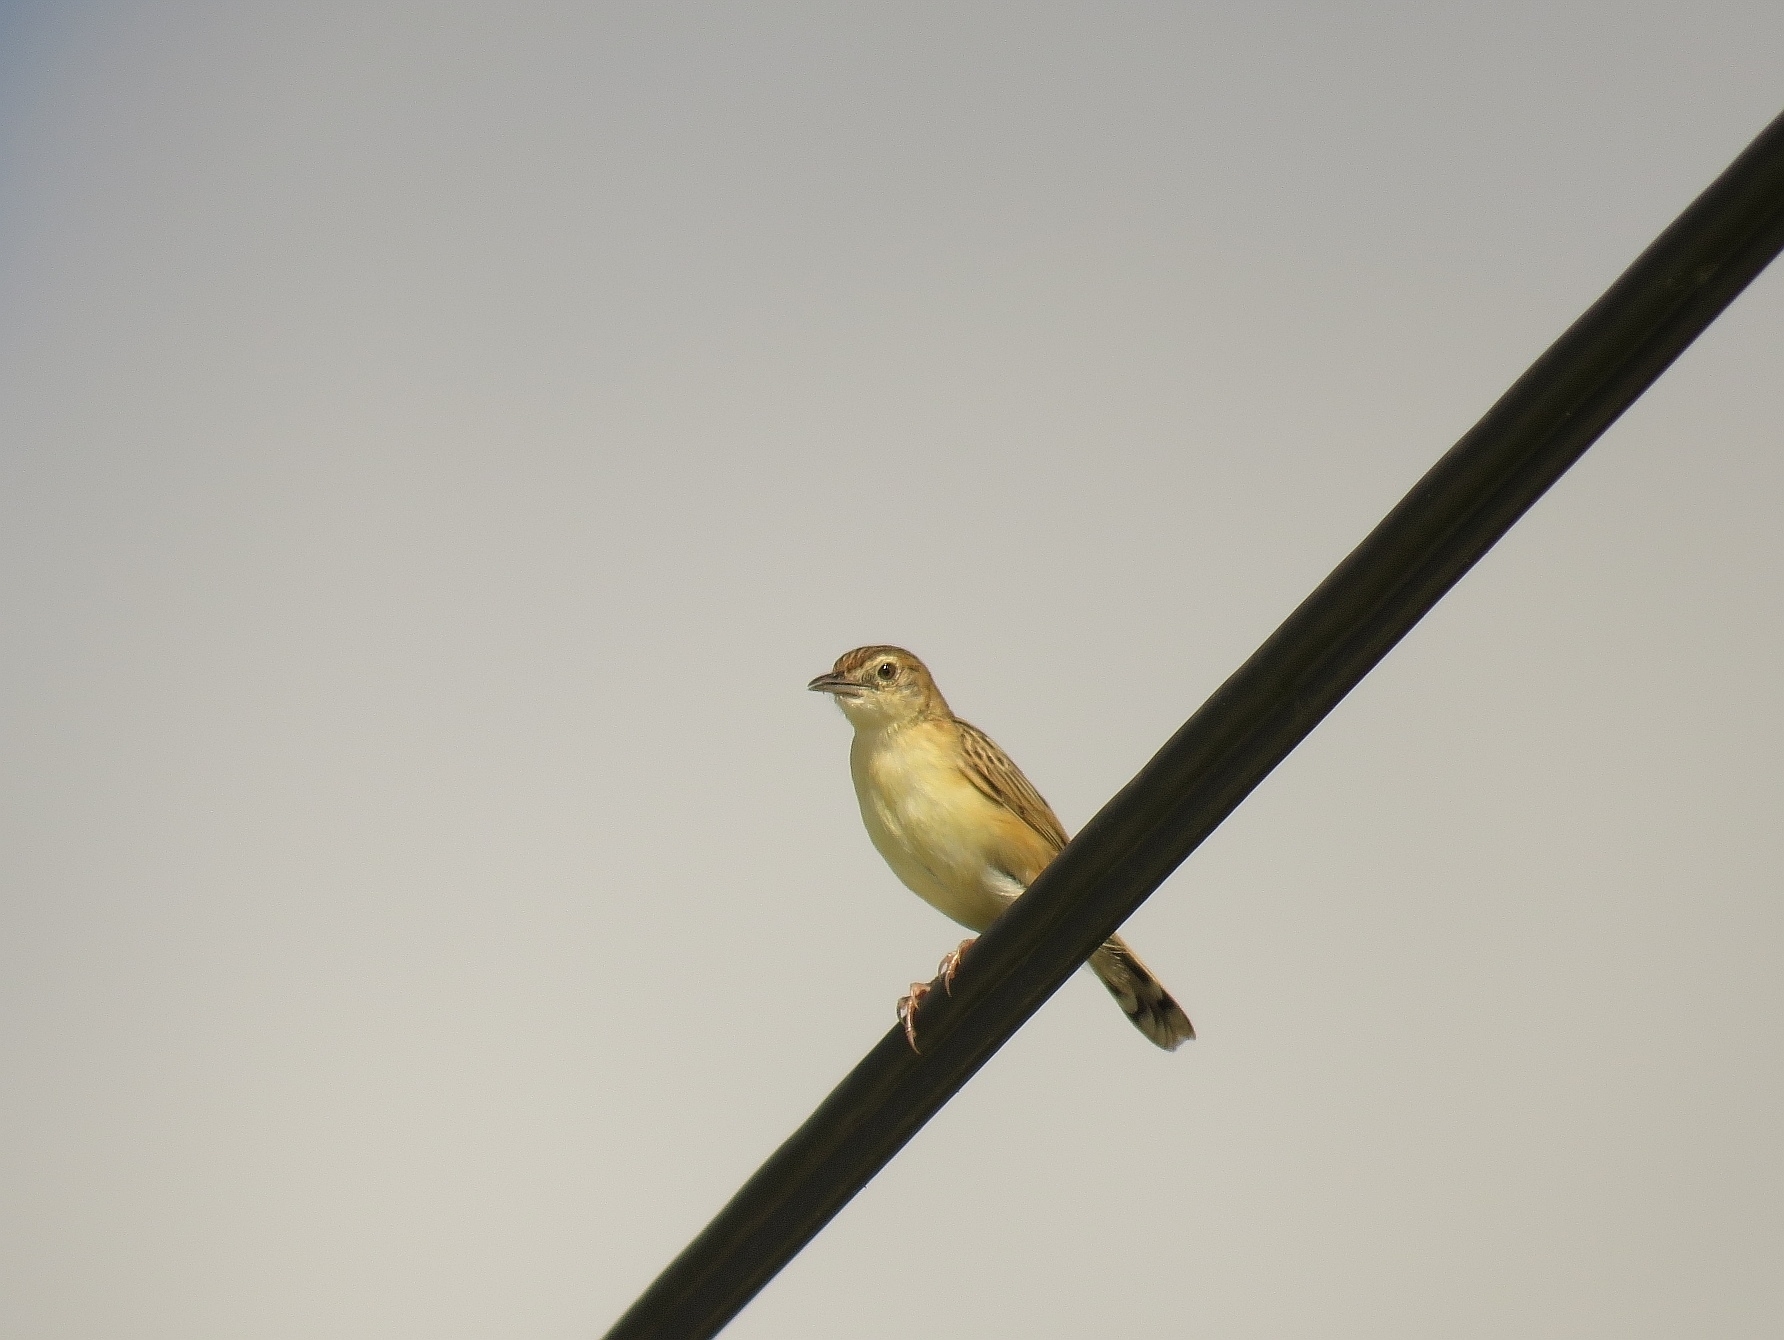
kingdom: Animalia
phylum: Chordata
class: Aves
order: Passeriformes
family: Cisticolidae
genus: Cisticola
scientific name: Cisticola juncidis
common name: Zitting cisticola
